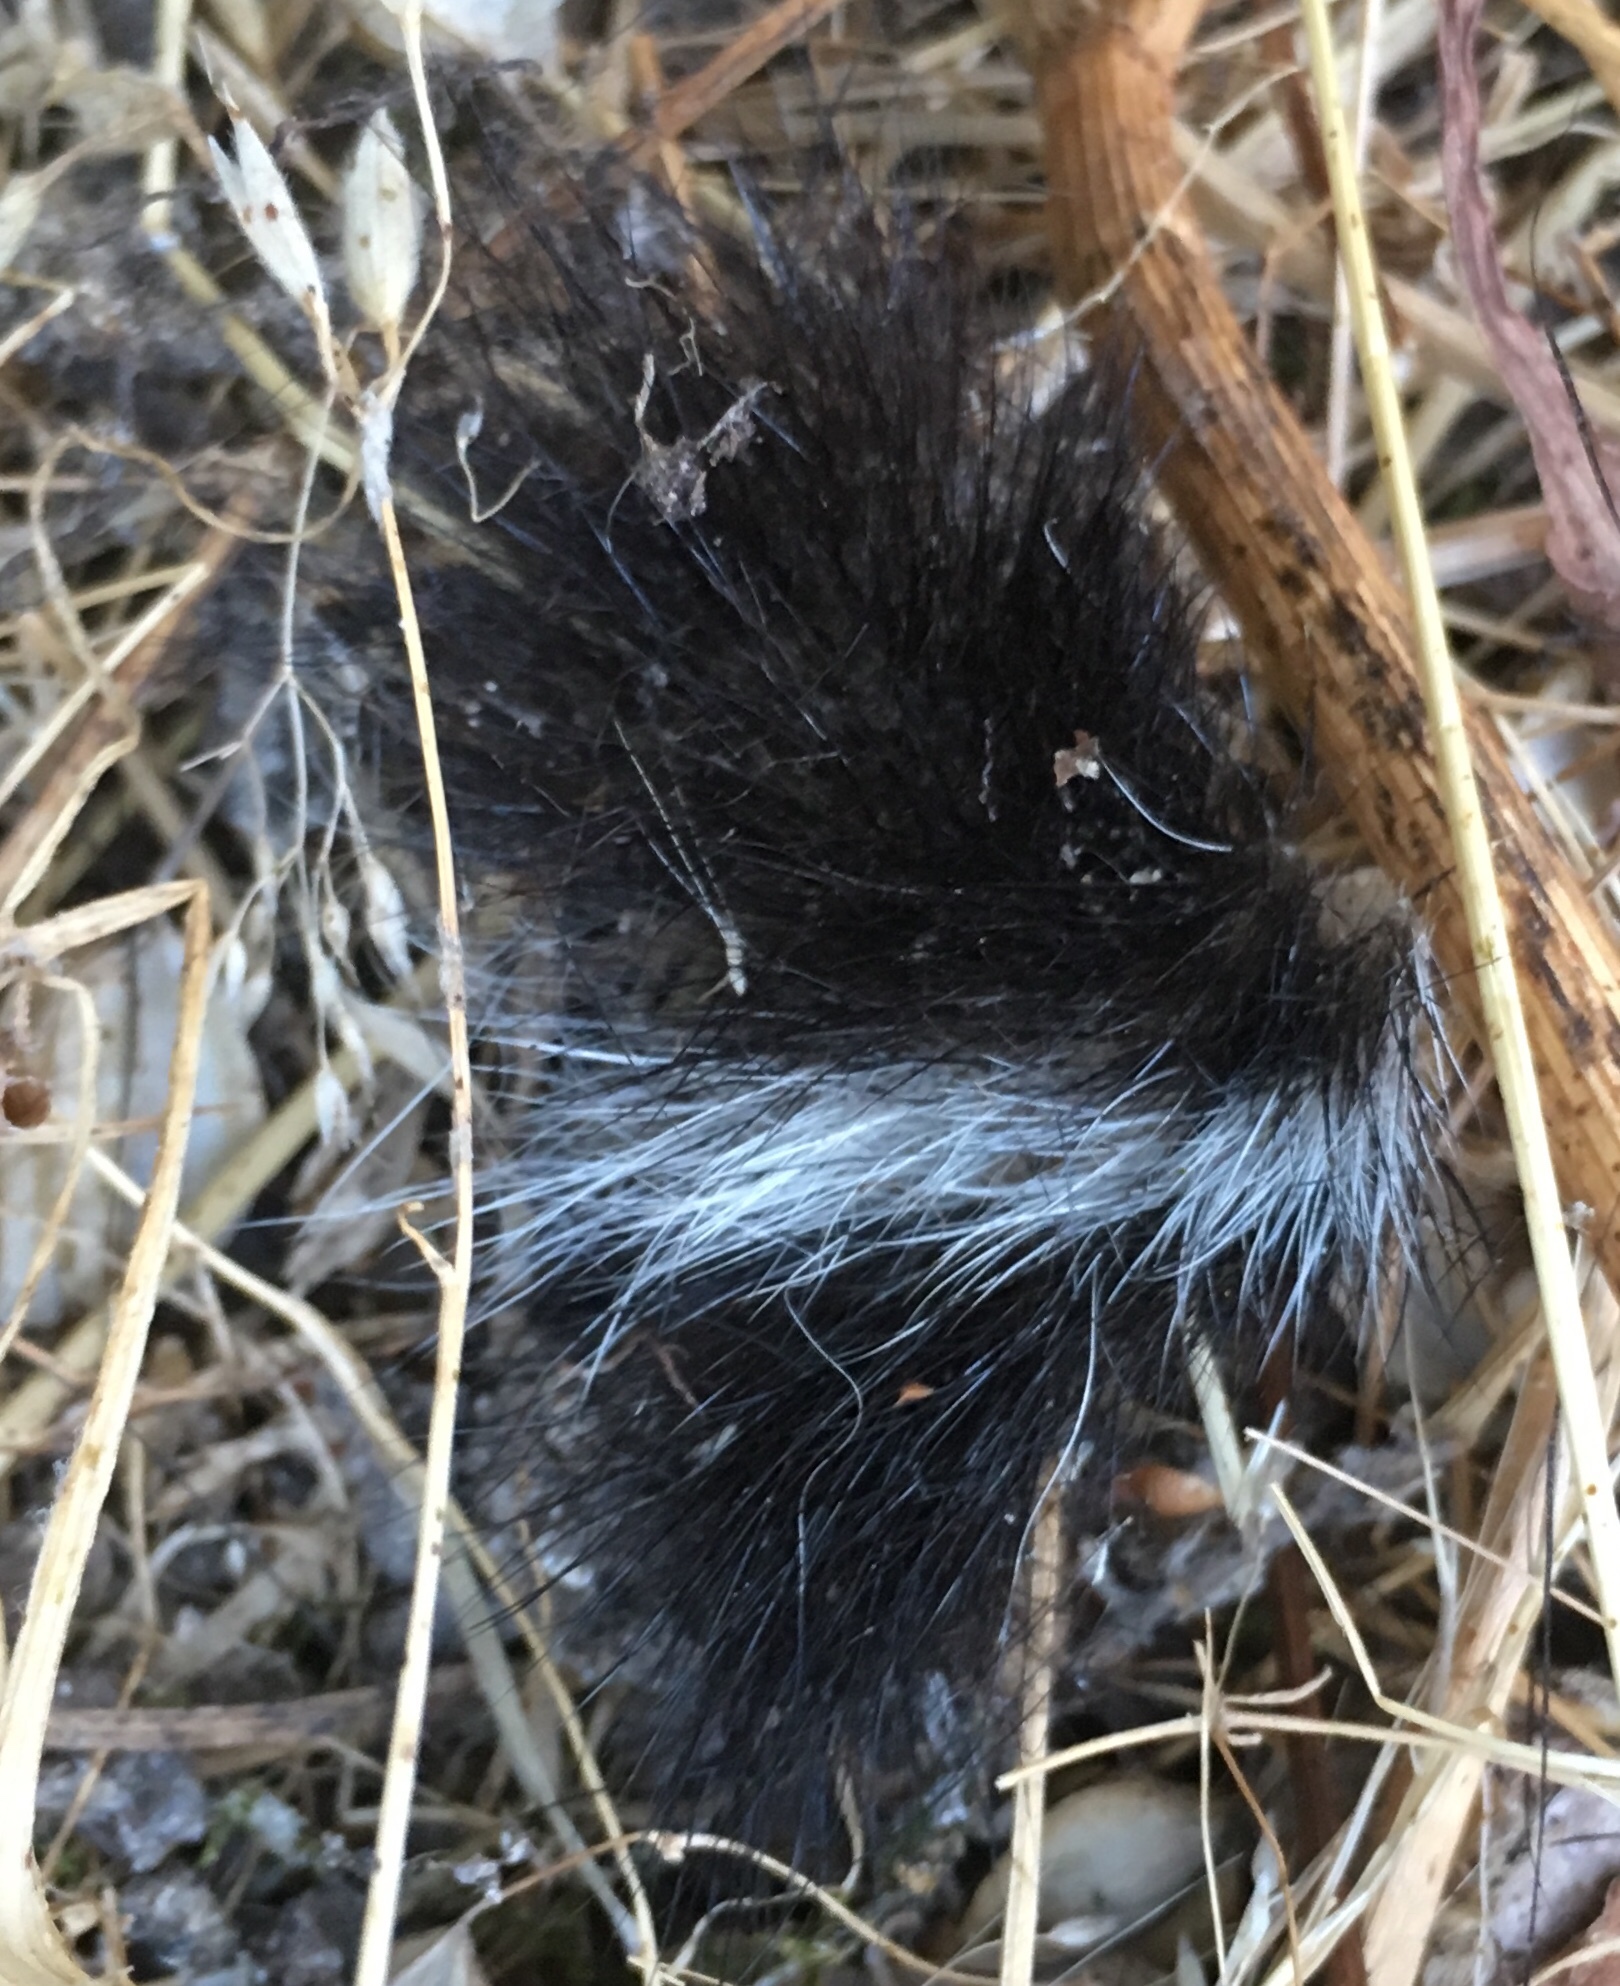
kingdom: Animalia
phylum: Chordata
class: Mammalia
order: Carnivora
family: Mephitidae
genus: Mephitis
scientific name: Mephitis mephitis
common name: Striped skunk
